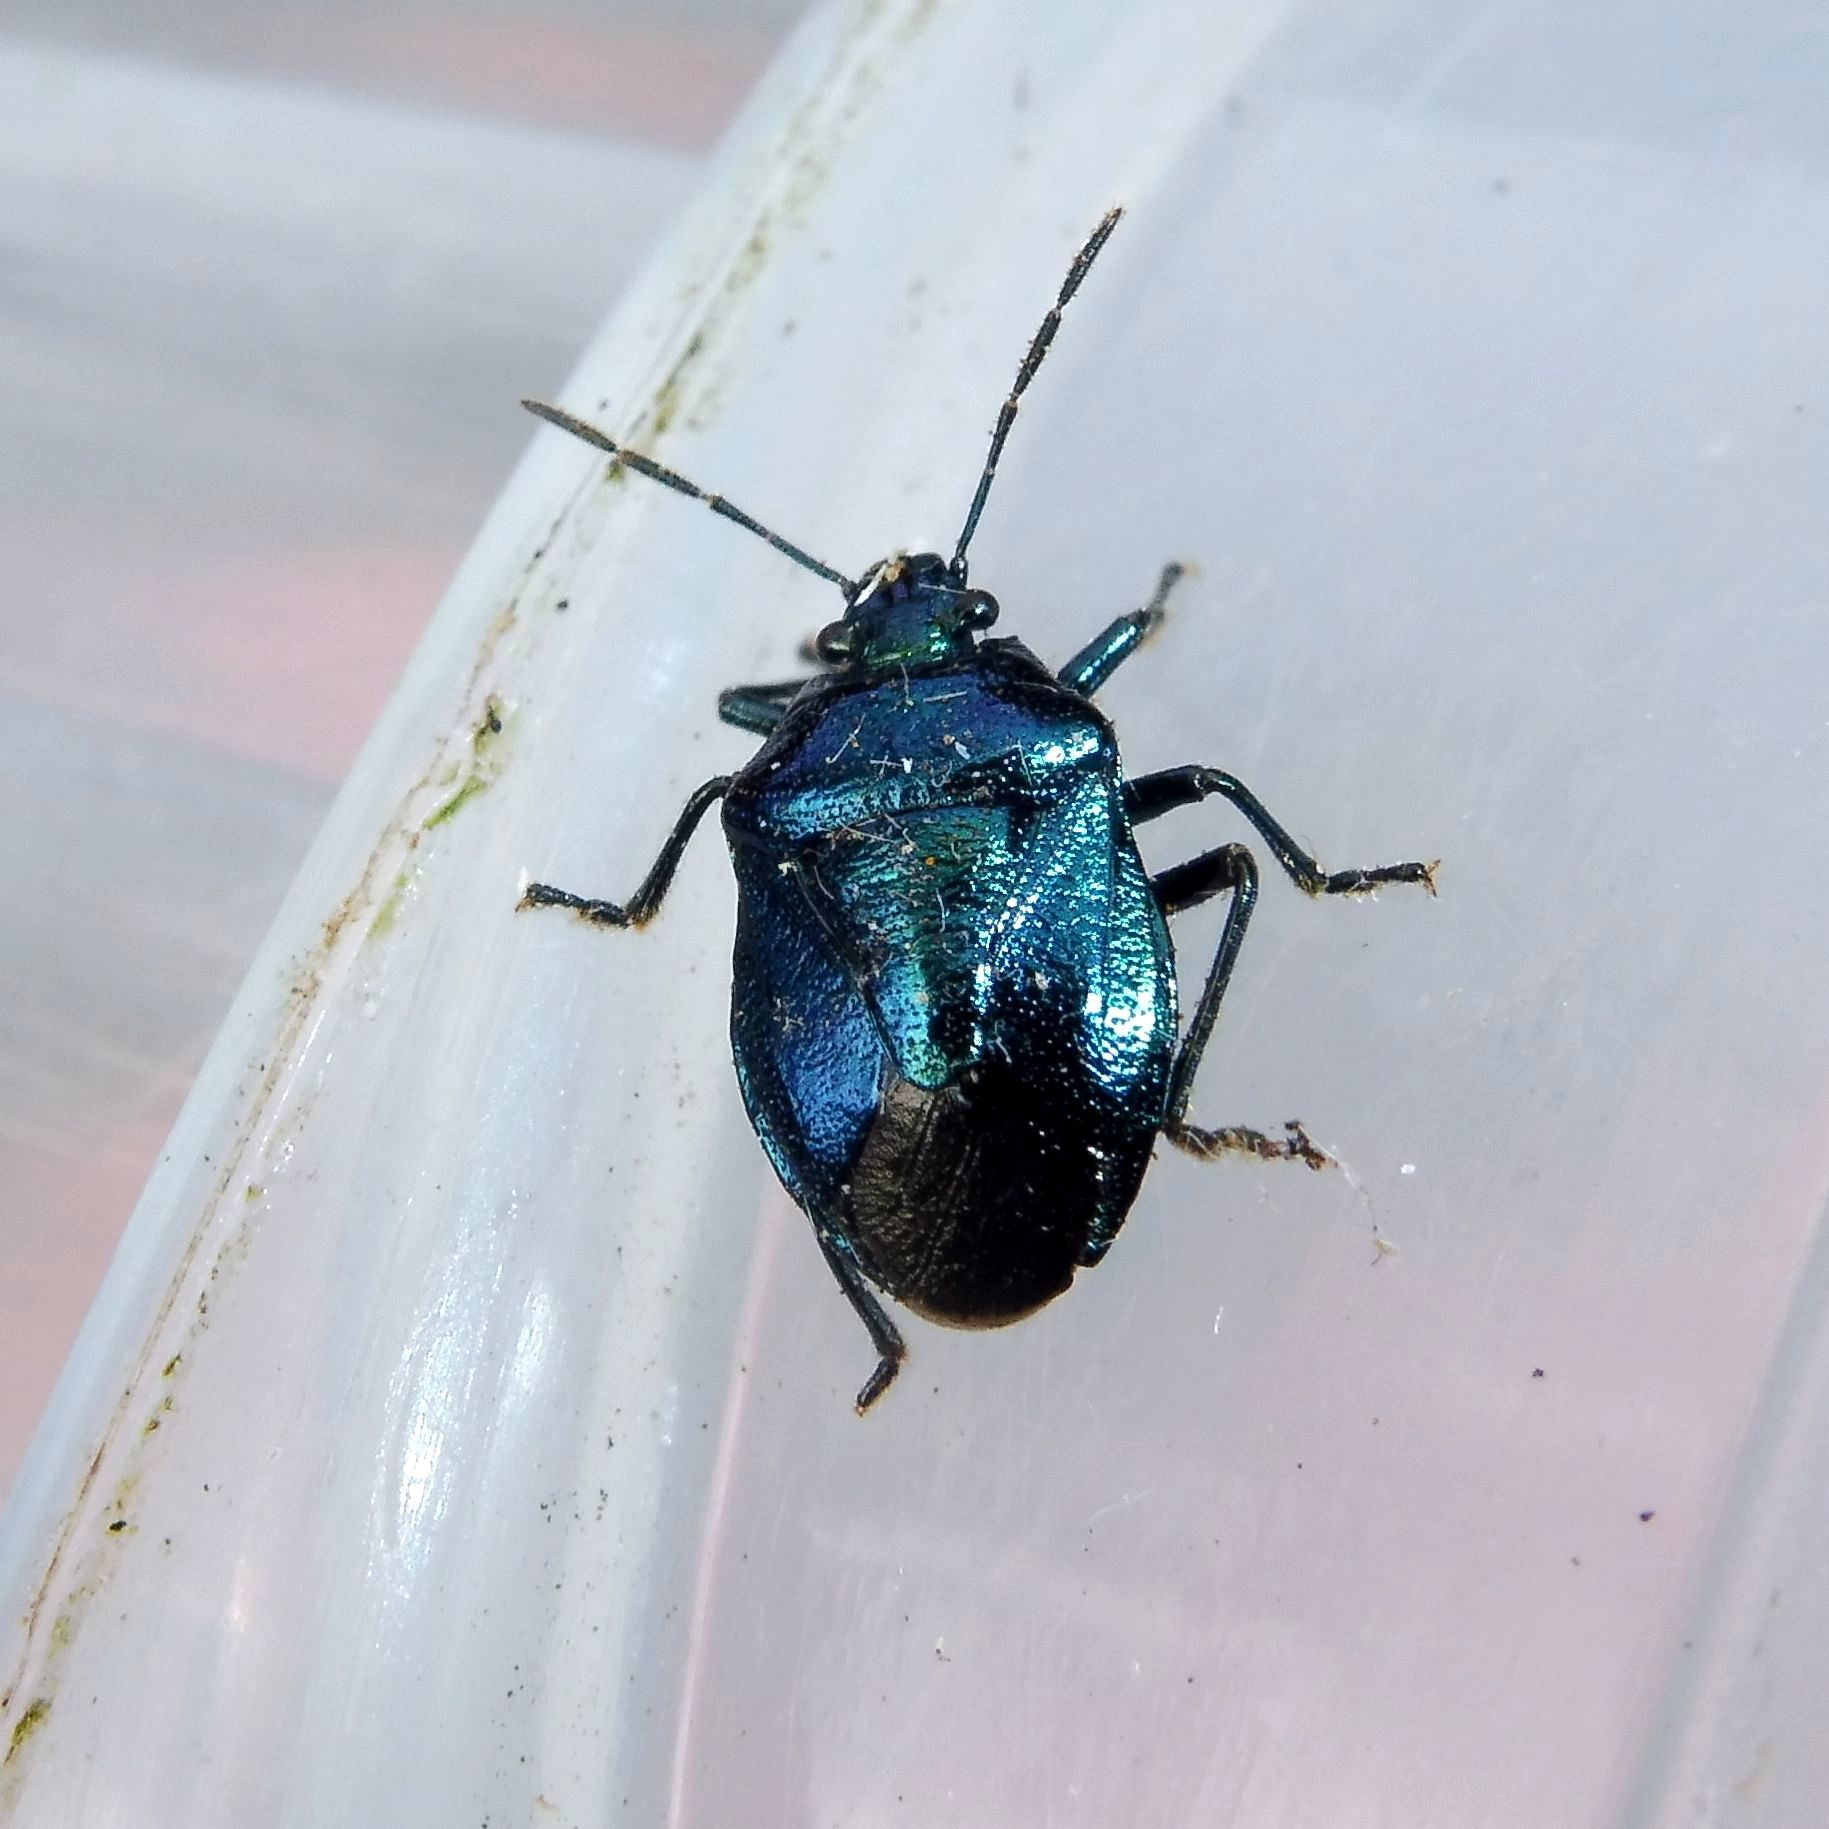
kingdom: Animalia
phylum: Arthropoda
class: Insecta
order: Hemiptera
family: Pentatomidae
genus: Zicrona
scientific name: Zicrona caerulea
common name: Blue shieldbug
